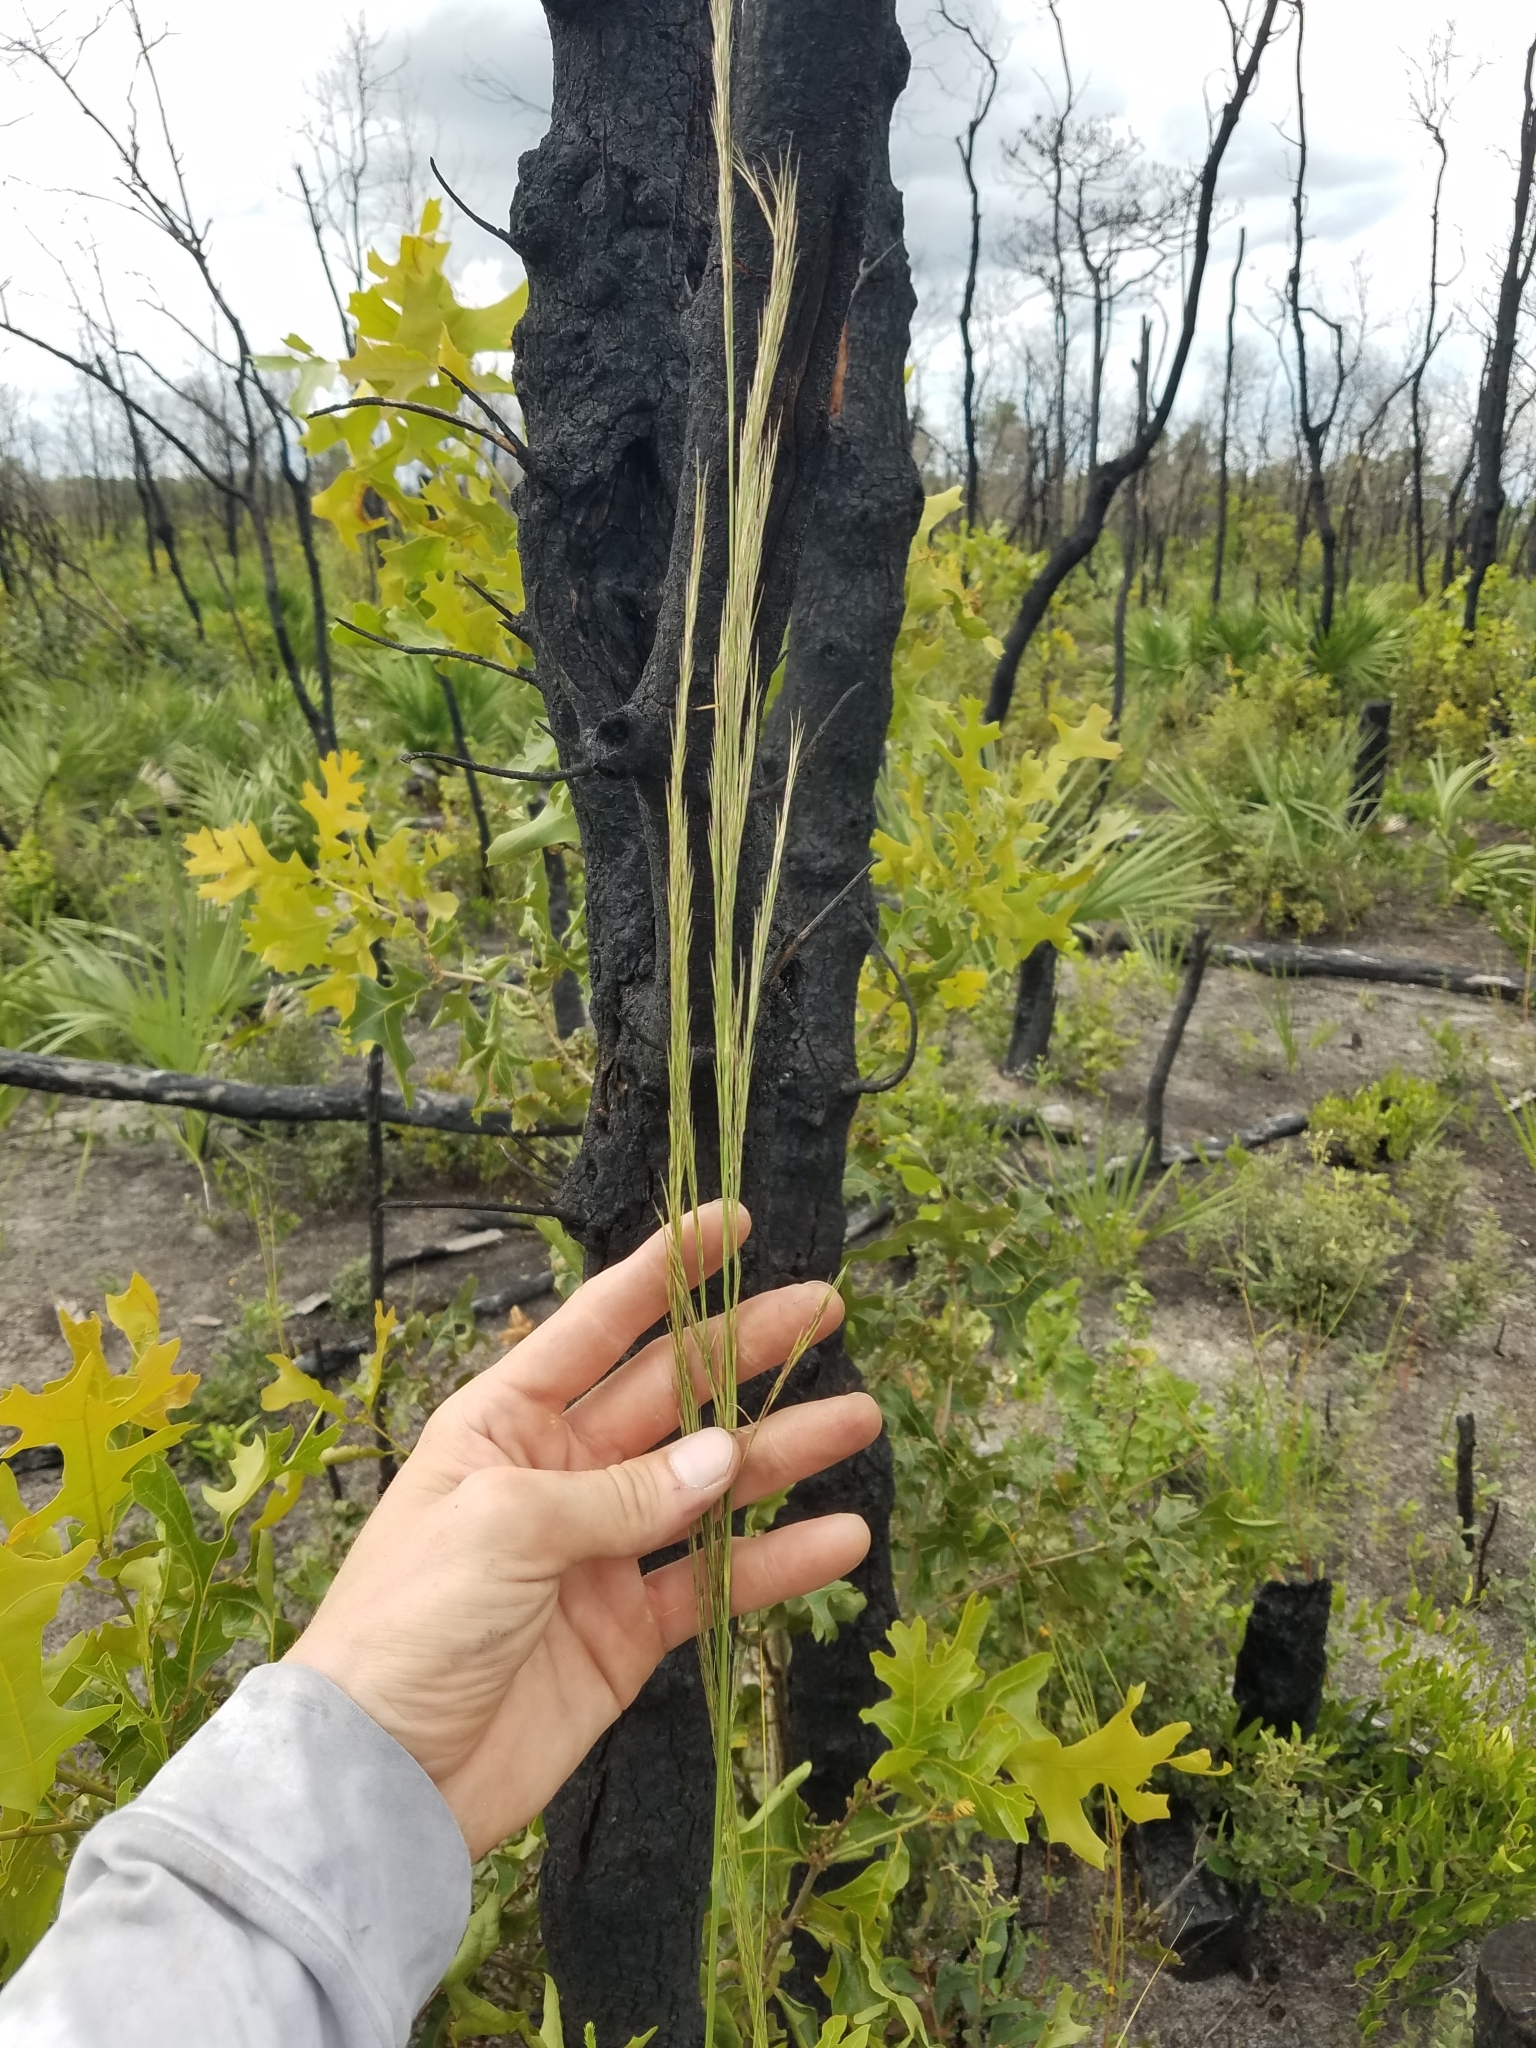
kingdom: Plantae
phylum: Tracheophyta
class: Liliopsida
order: Poales
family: Poaceae
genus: Aristida
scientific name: Aristida condensata
